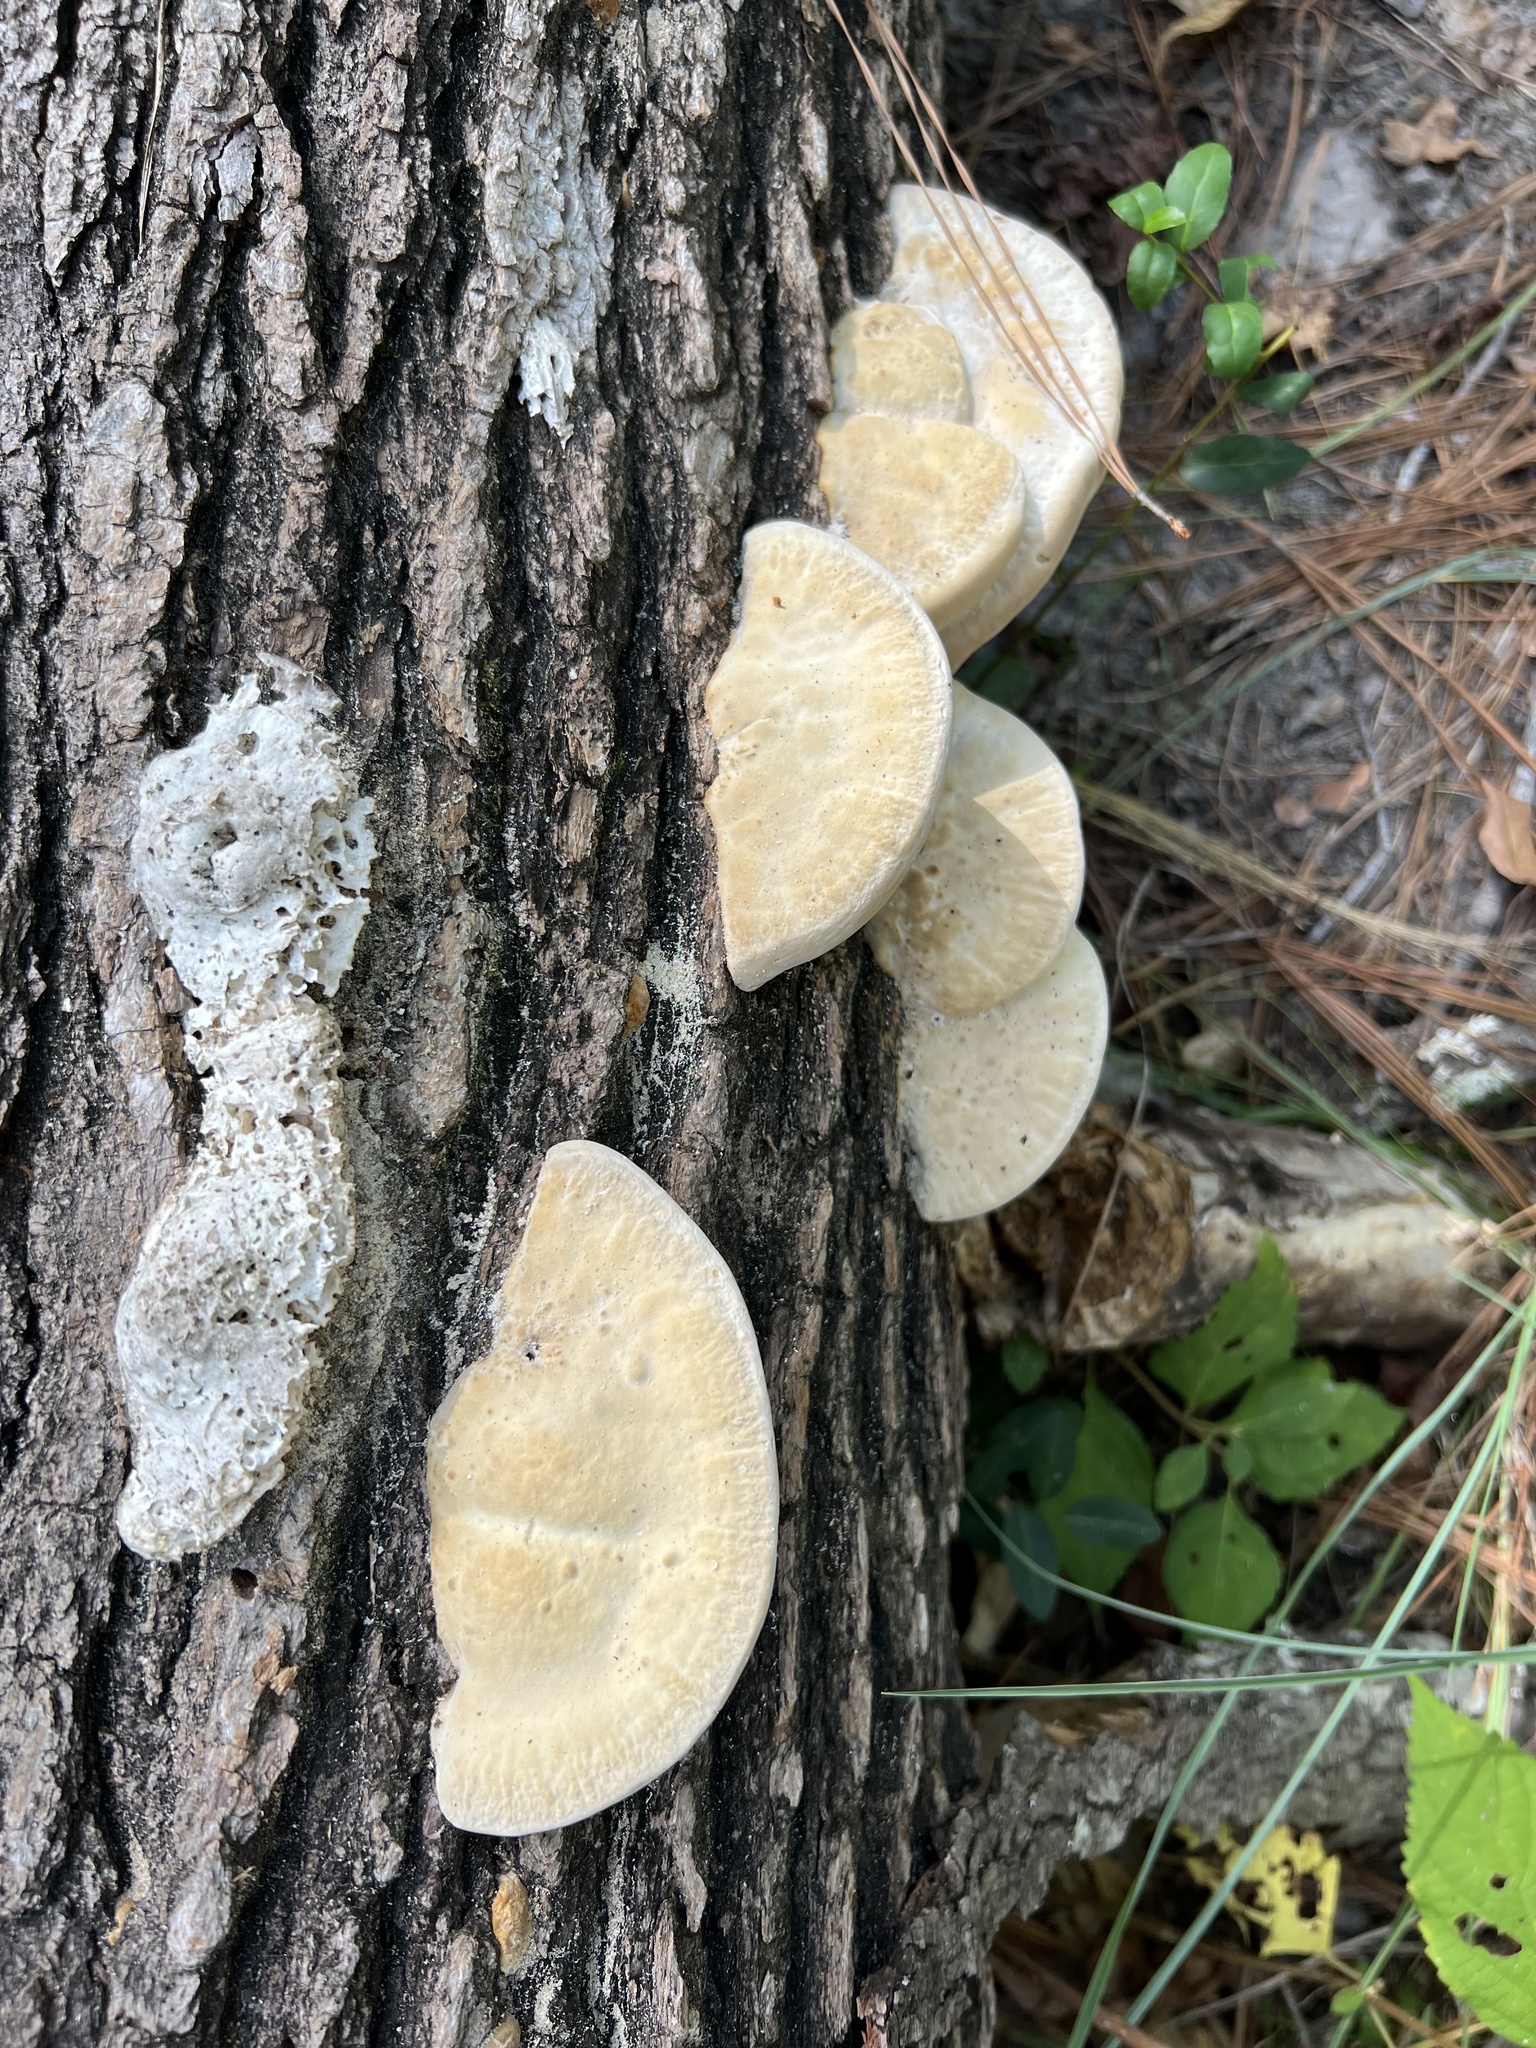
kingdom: Fungi
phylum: Basidiomycota
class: Agaricomycetes
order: Polyporales
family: Polyporaceae
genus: Trametes
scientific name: Trametes lactinea
